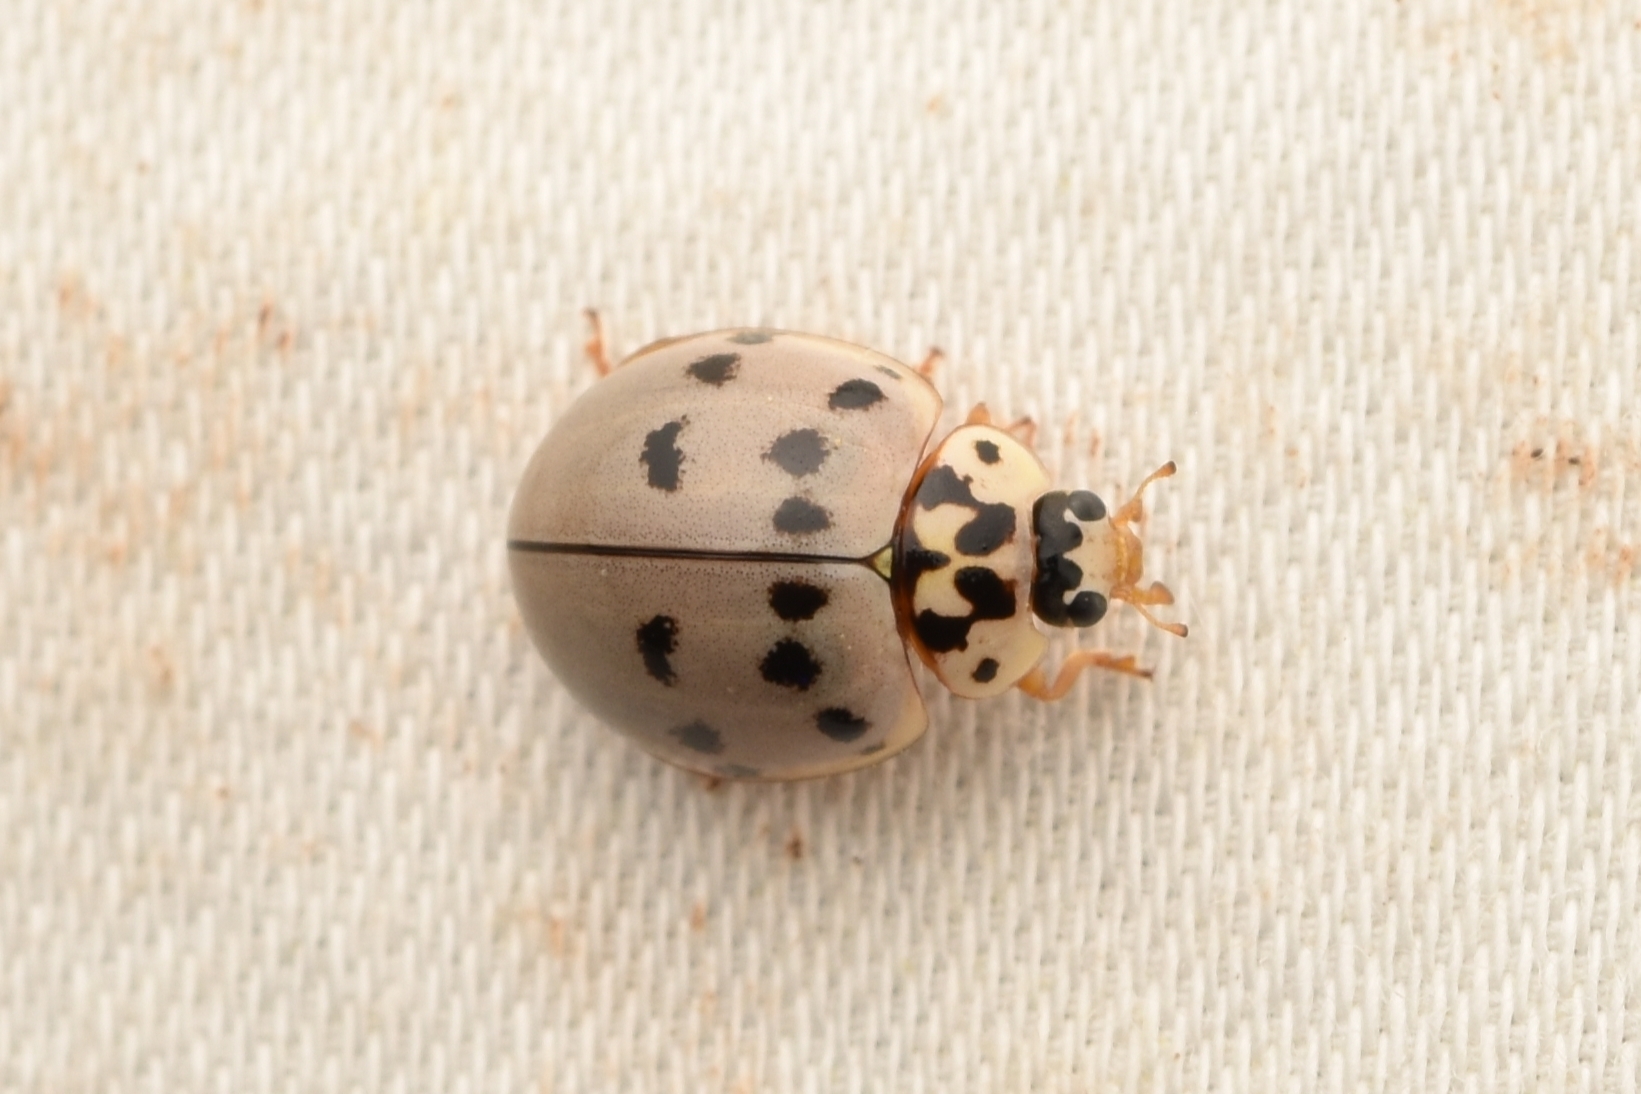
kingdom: Animalia
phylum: Arthropoda
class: Insecta
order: Coleoptera
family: Coccinellidae
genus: Olla
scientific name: Olla v-nigrum
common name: Ashy gray lady beetle
